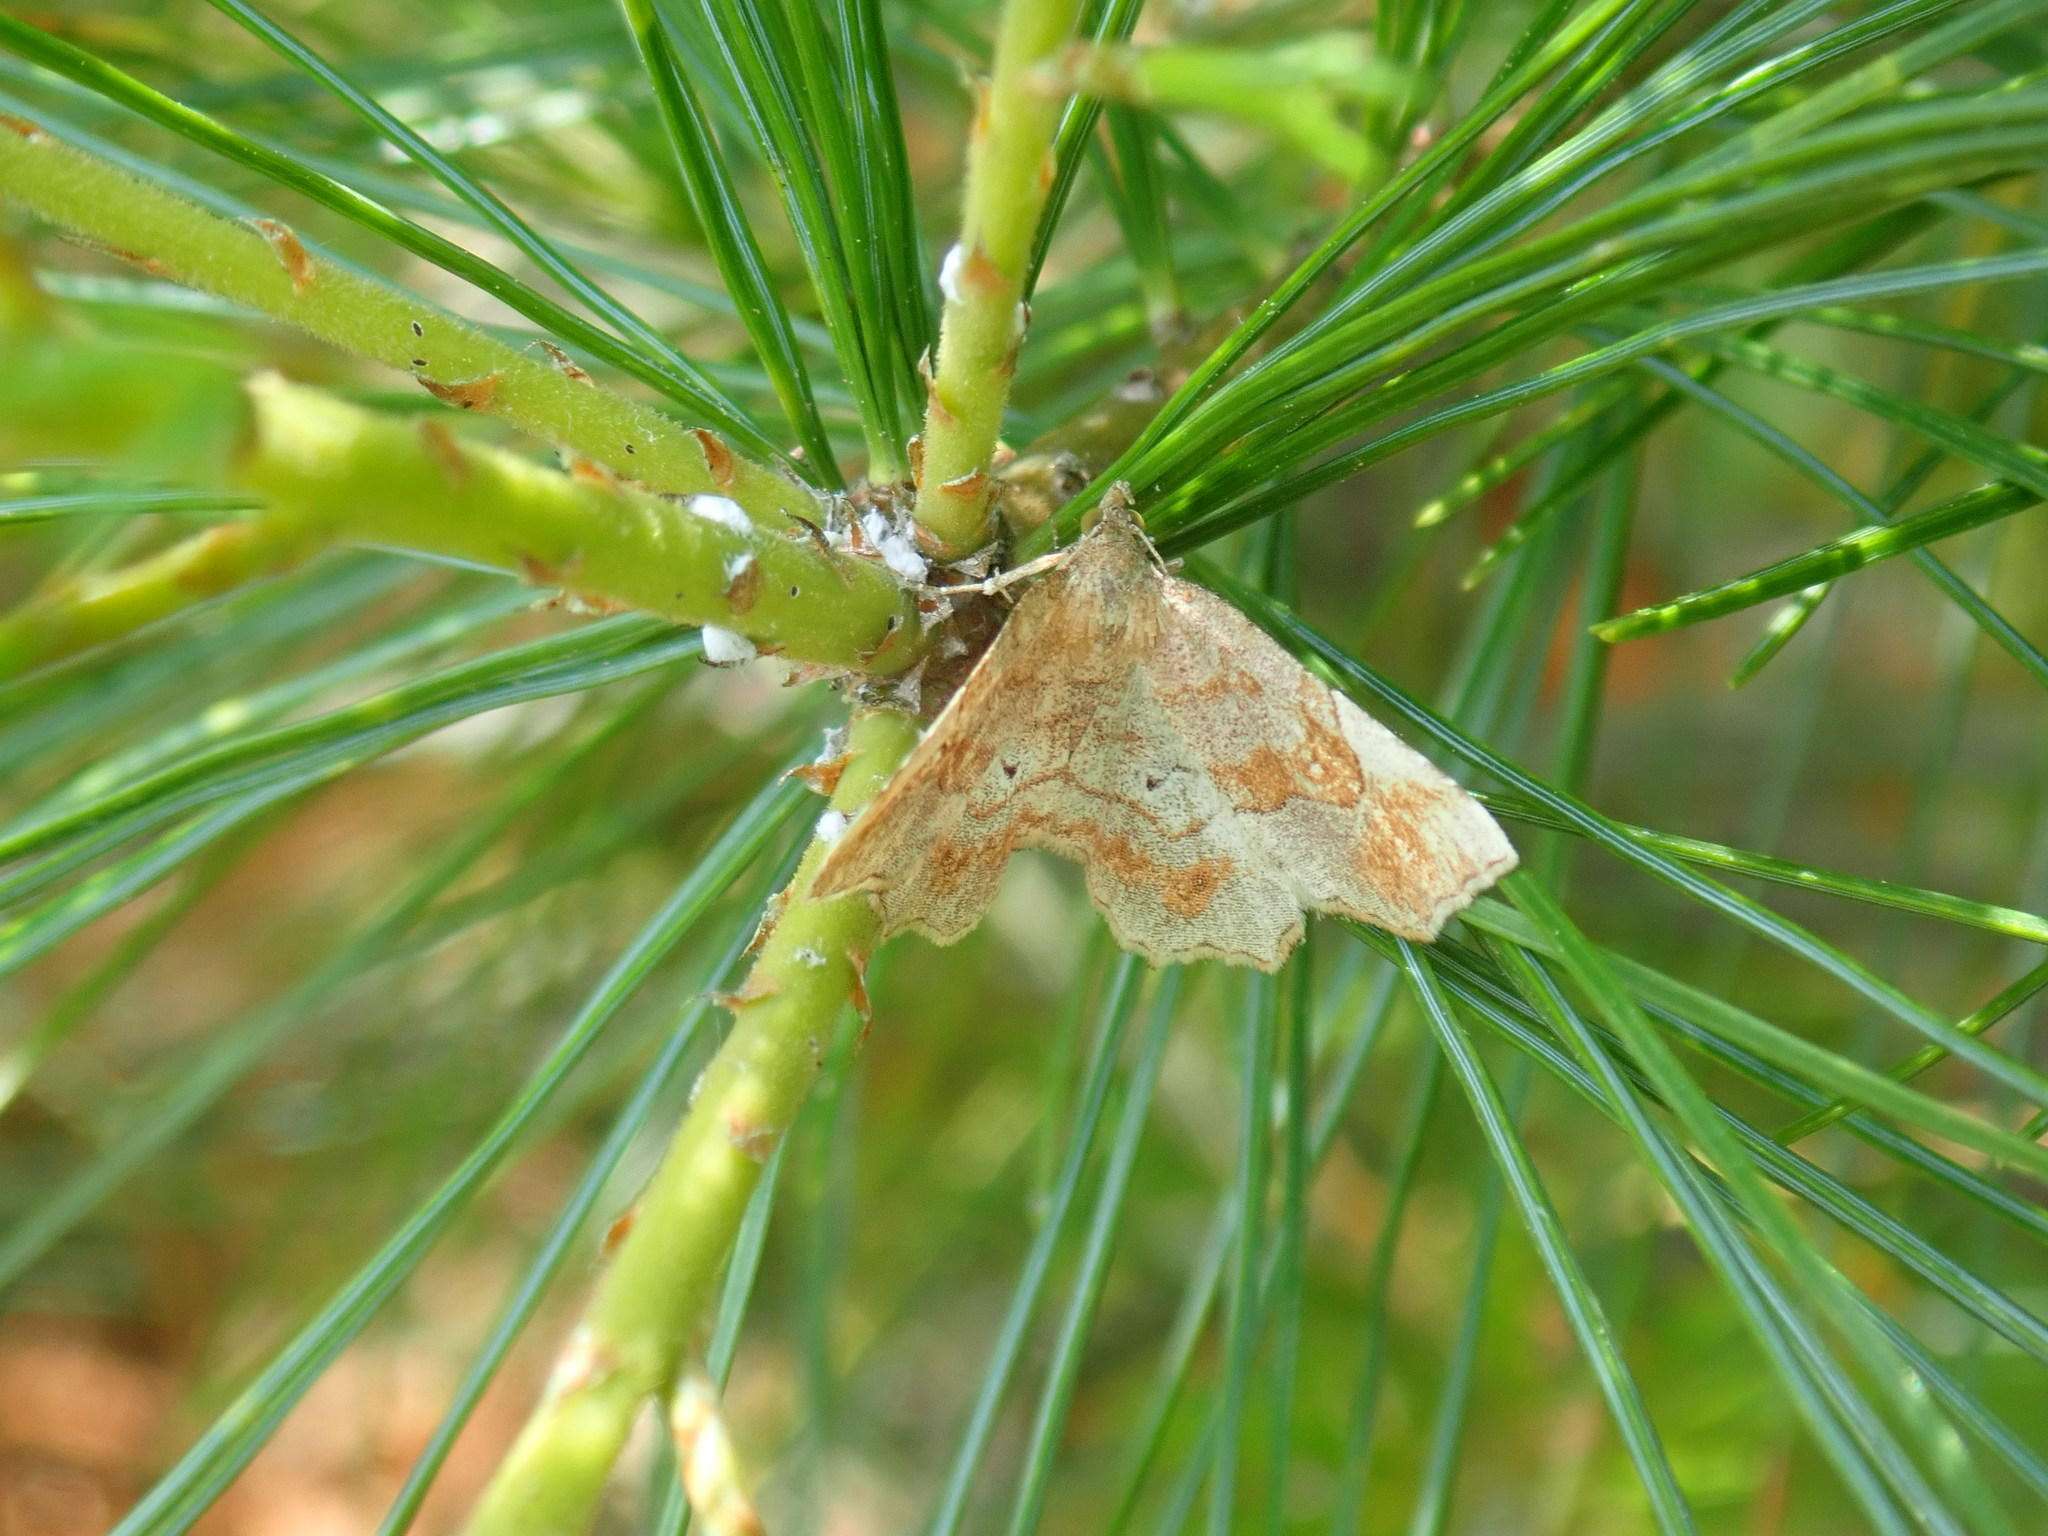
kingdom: Animalia
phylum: Arthropoda
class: Insecta
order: Lepidoptera
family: Erebidae
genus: Pangrapta
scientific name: Pangrapta decoralis
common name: Decorated owlet
